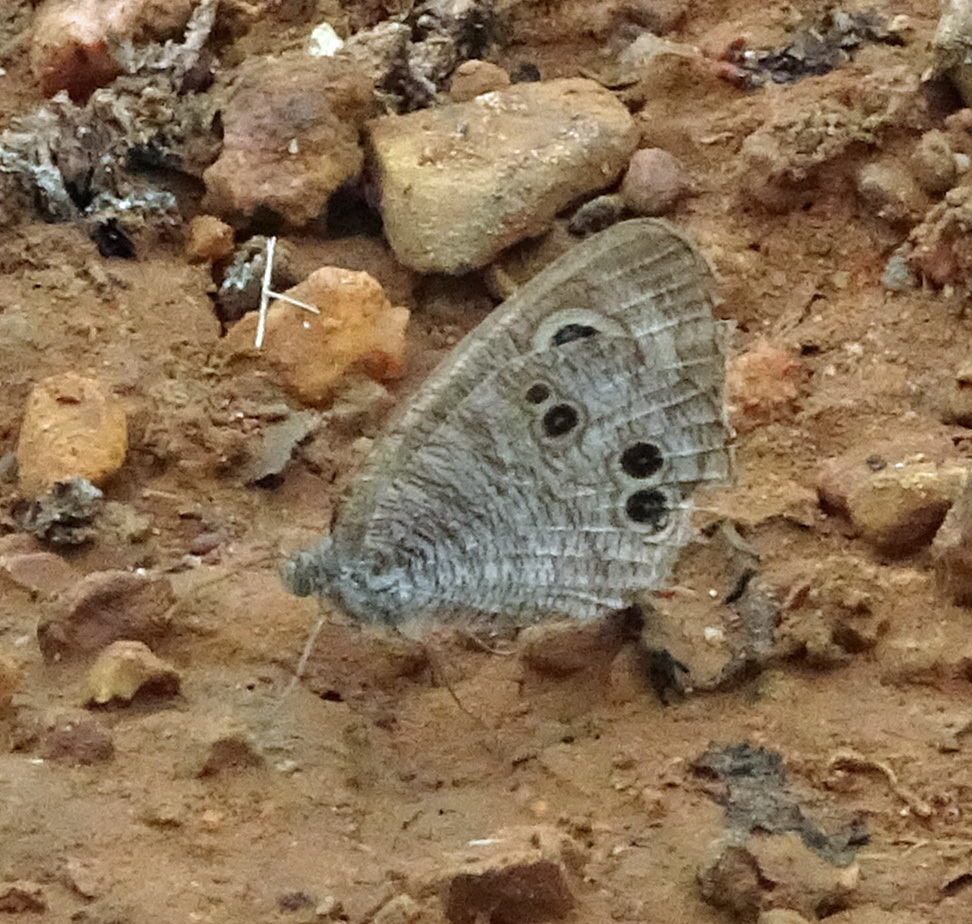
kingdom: Animalia
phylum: Arthropoda
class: Insecta
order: Lepidoptera
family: Nymphalidae
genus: Ypthima
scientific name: Ypthima baldus
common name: Common five-ring
